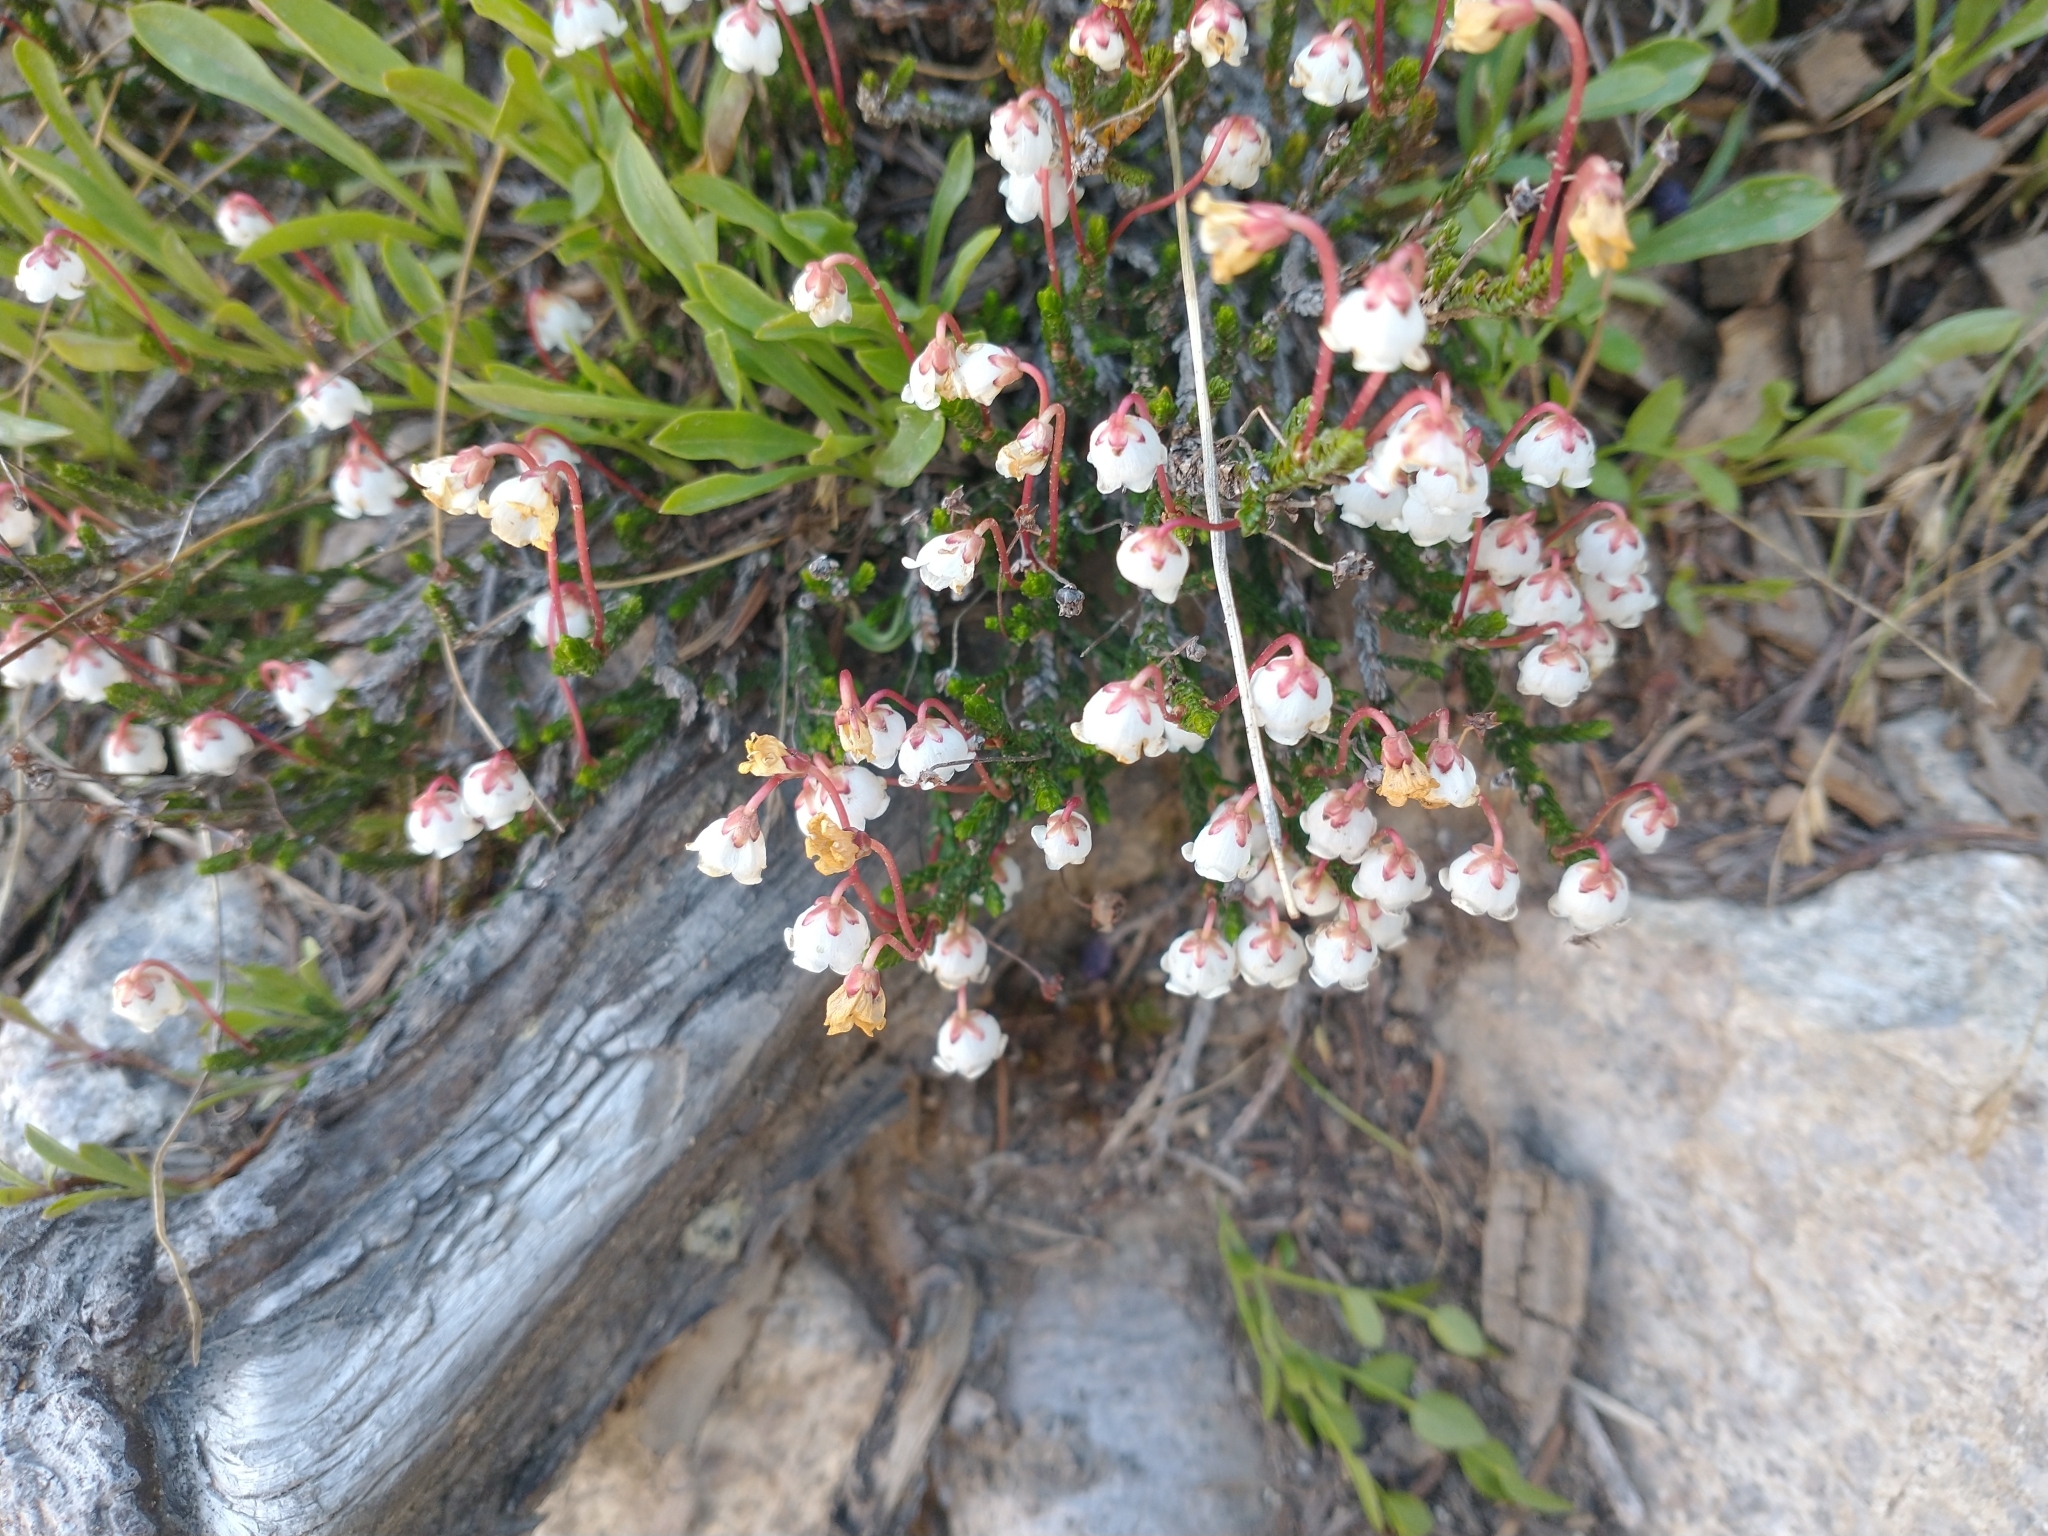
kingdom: Plantae
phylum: Tracheophyta
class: Magnoliopsida
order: Ericales
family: Ericaceae
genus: Cassiope
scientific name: Cassiope mertensiana
